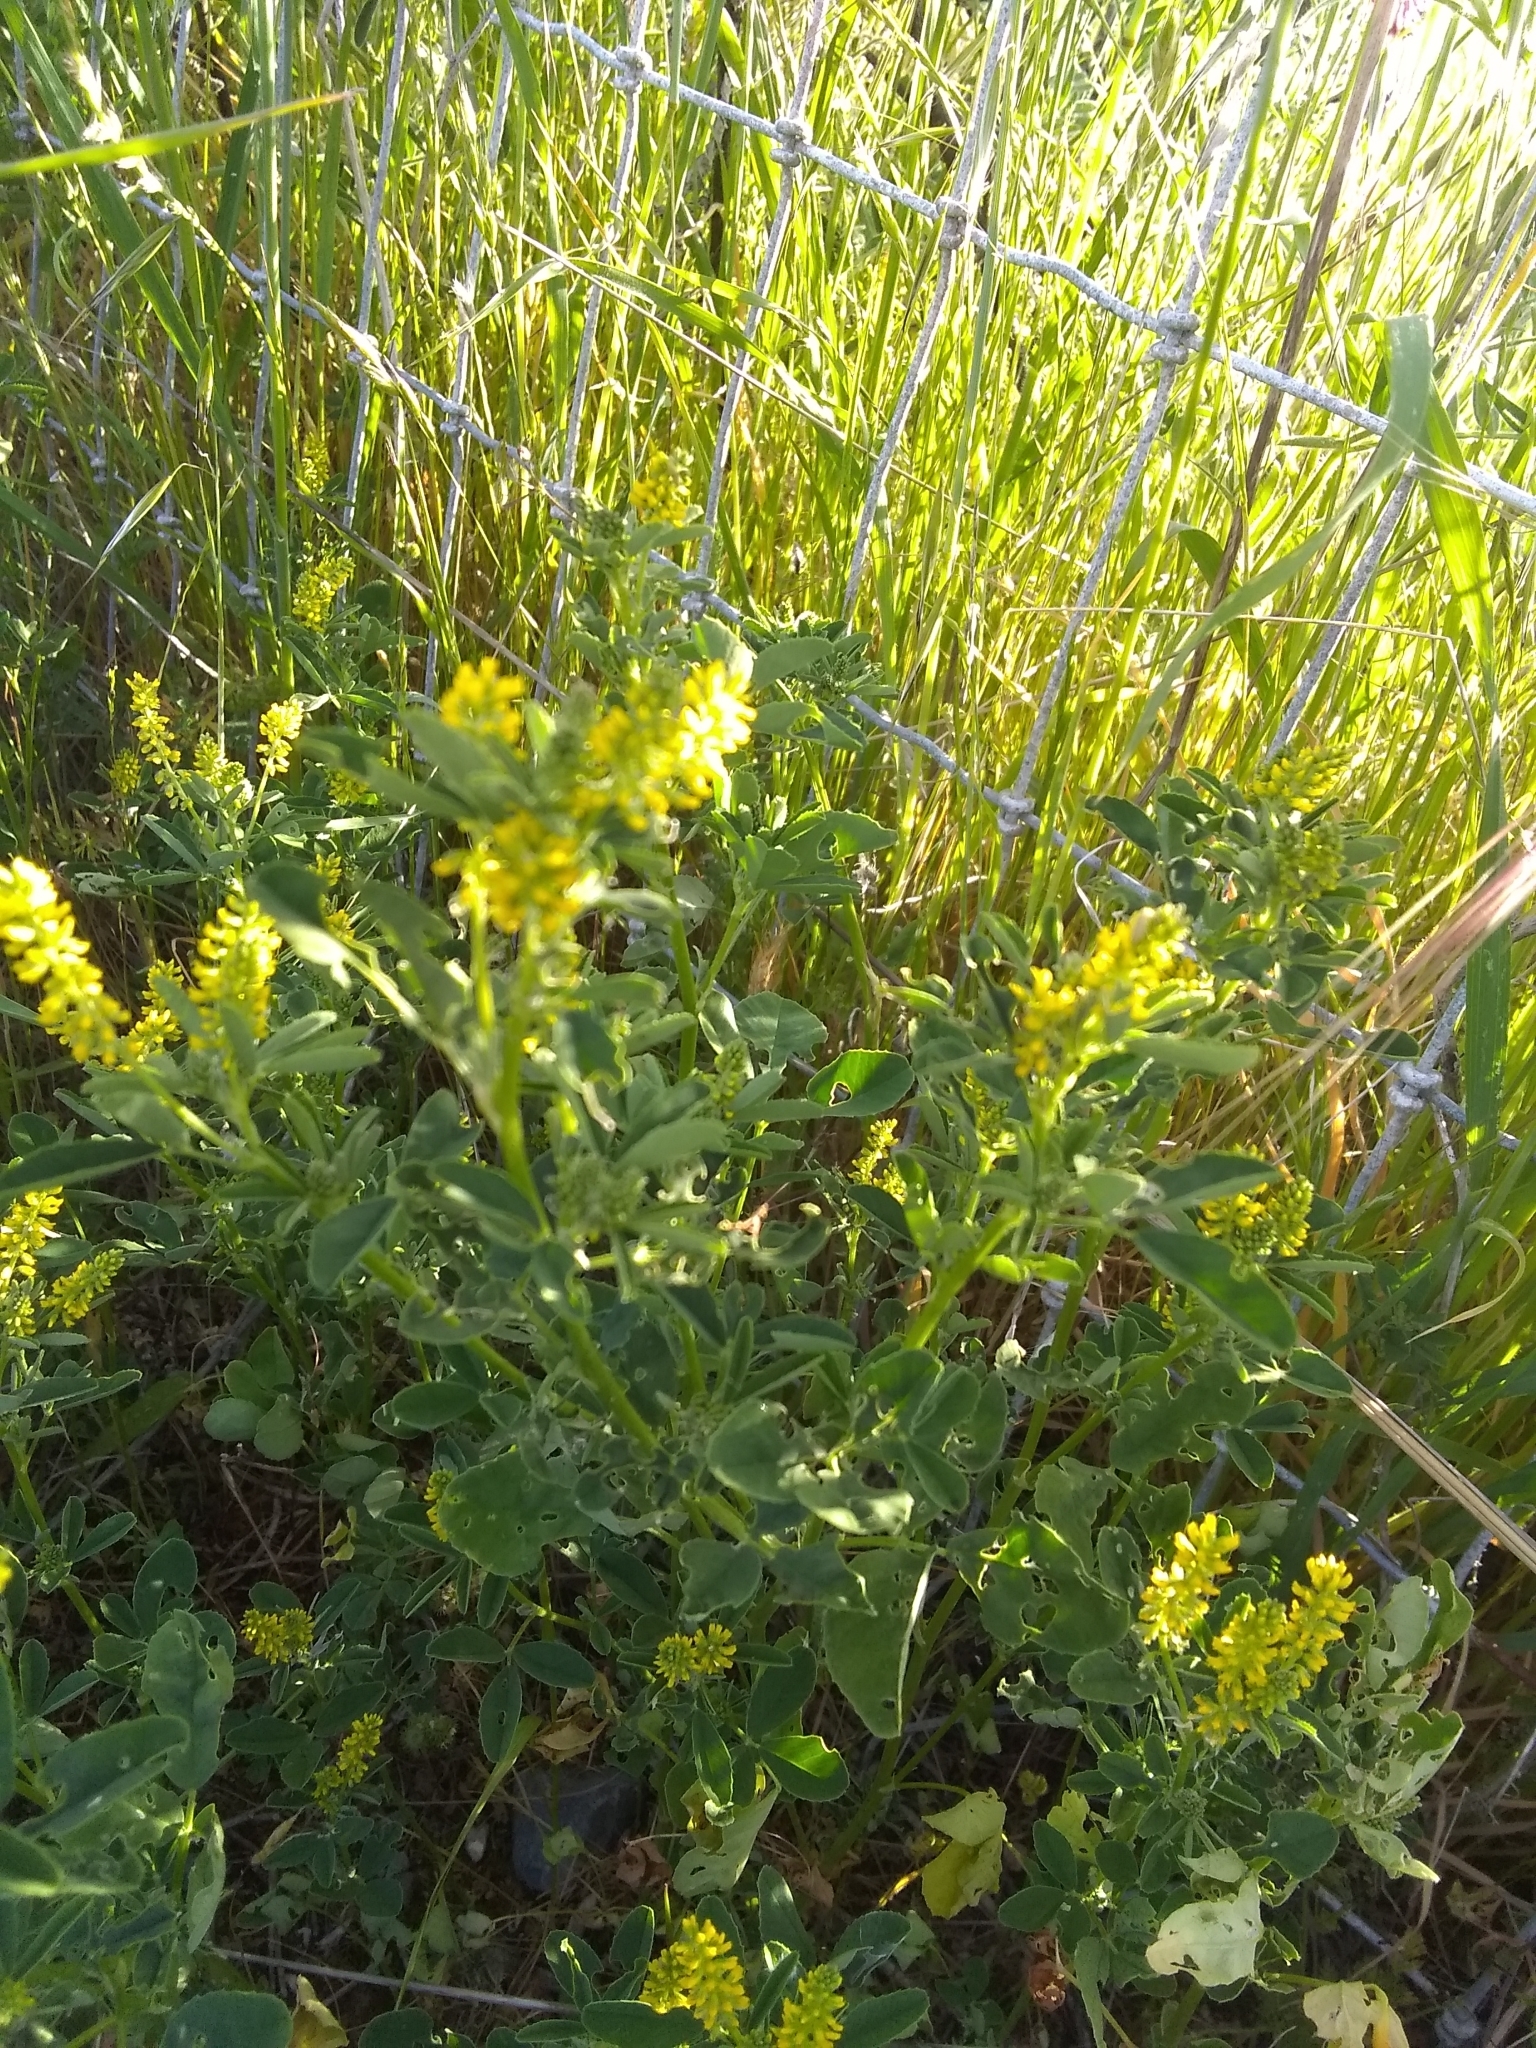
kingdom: Plantae
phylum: Tracheophyta
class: Magnoliopsida
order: Fabales
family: Fabaceae
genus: Melilotus
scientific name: Melilotus indicus
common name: Small melilot
